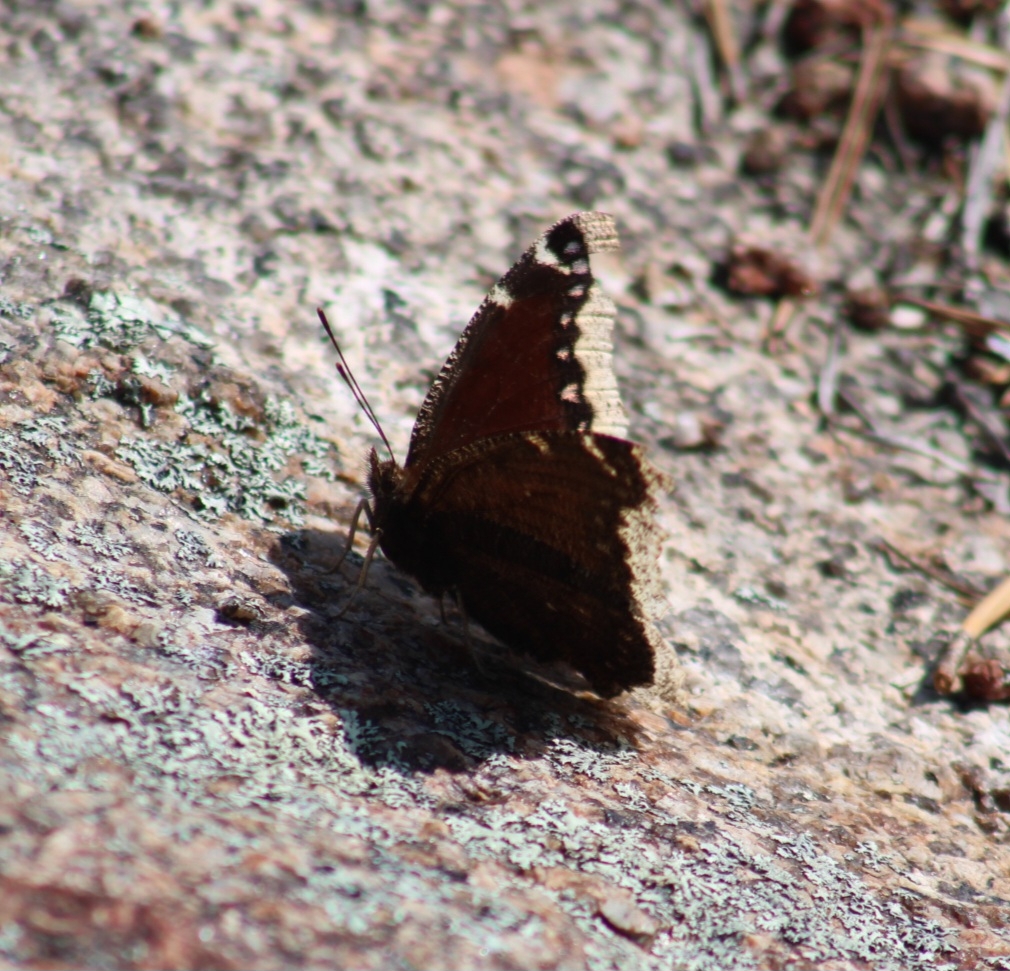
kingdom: Animalia
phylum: Arthropoda
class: Insecta
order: Lepidoptera
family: Nymphalidae
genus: Nymphalis
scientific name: Nymphalis antiopa
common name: Camberwell beauty
